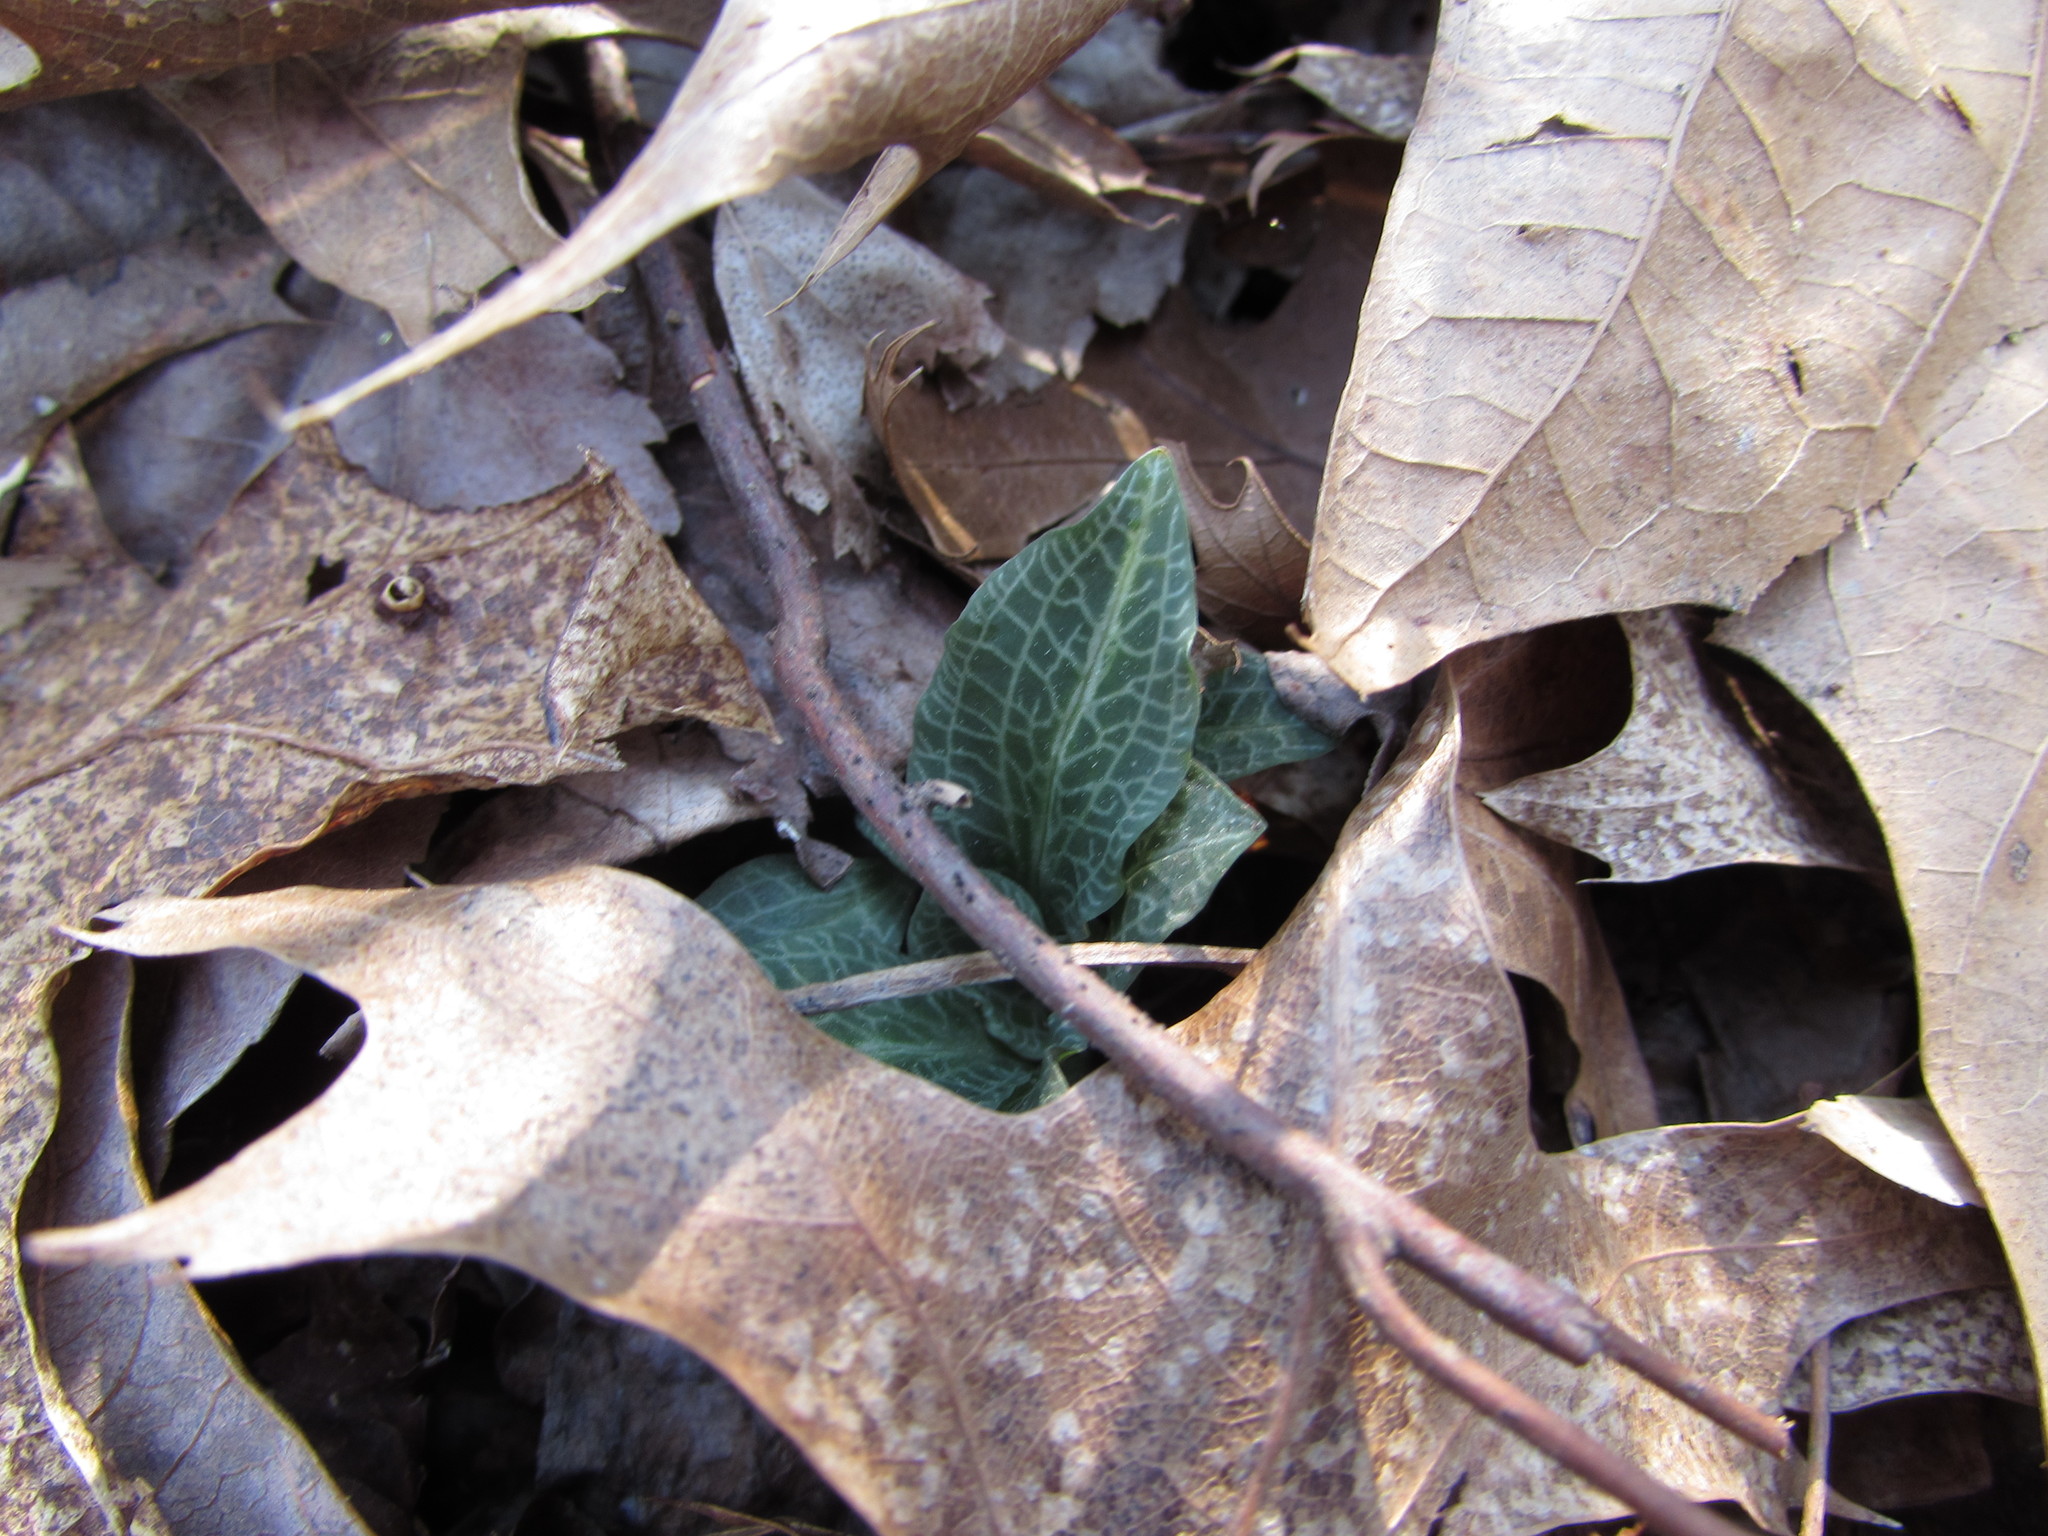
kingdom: Plantae
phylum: Tracheophyta
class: Liliopsida
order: Asparagales
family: Orchidaceae
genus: Goodyera
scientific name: Goodyera pubescens
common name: Downy rattlesnake-plantain
